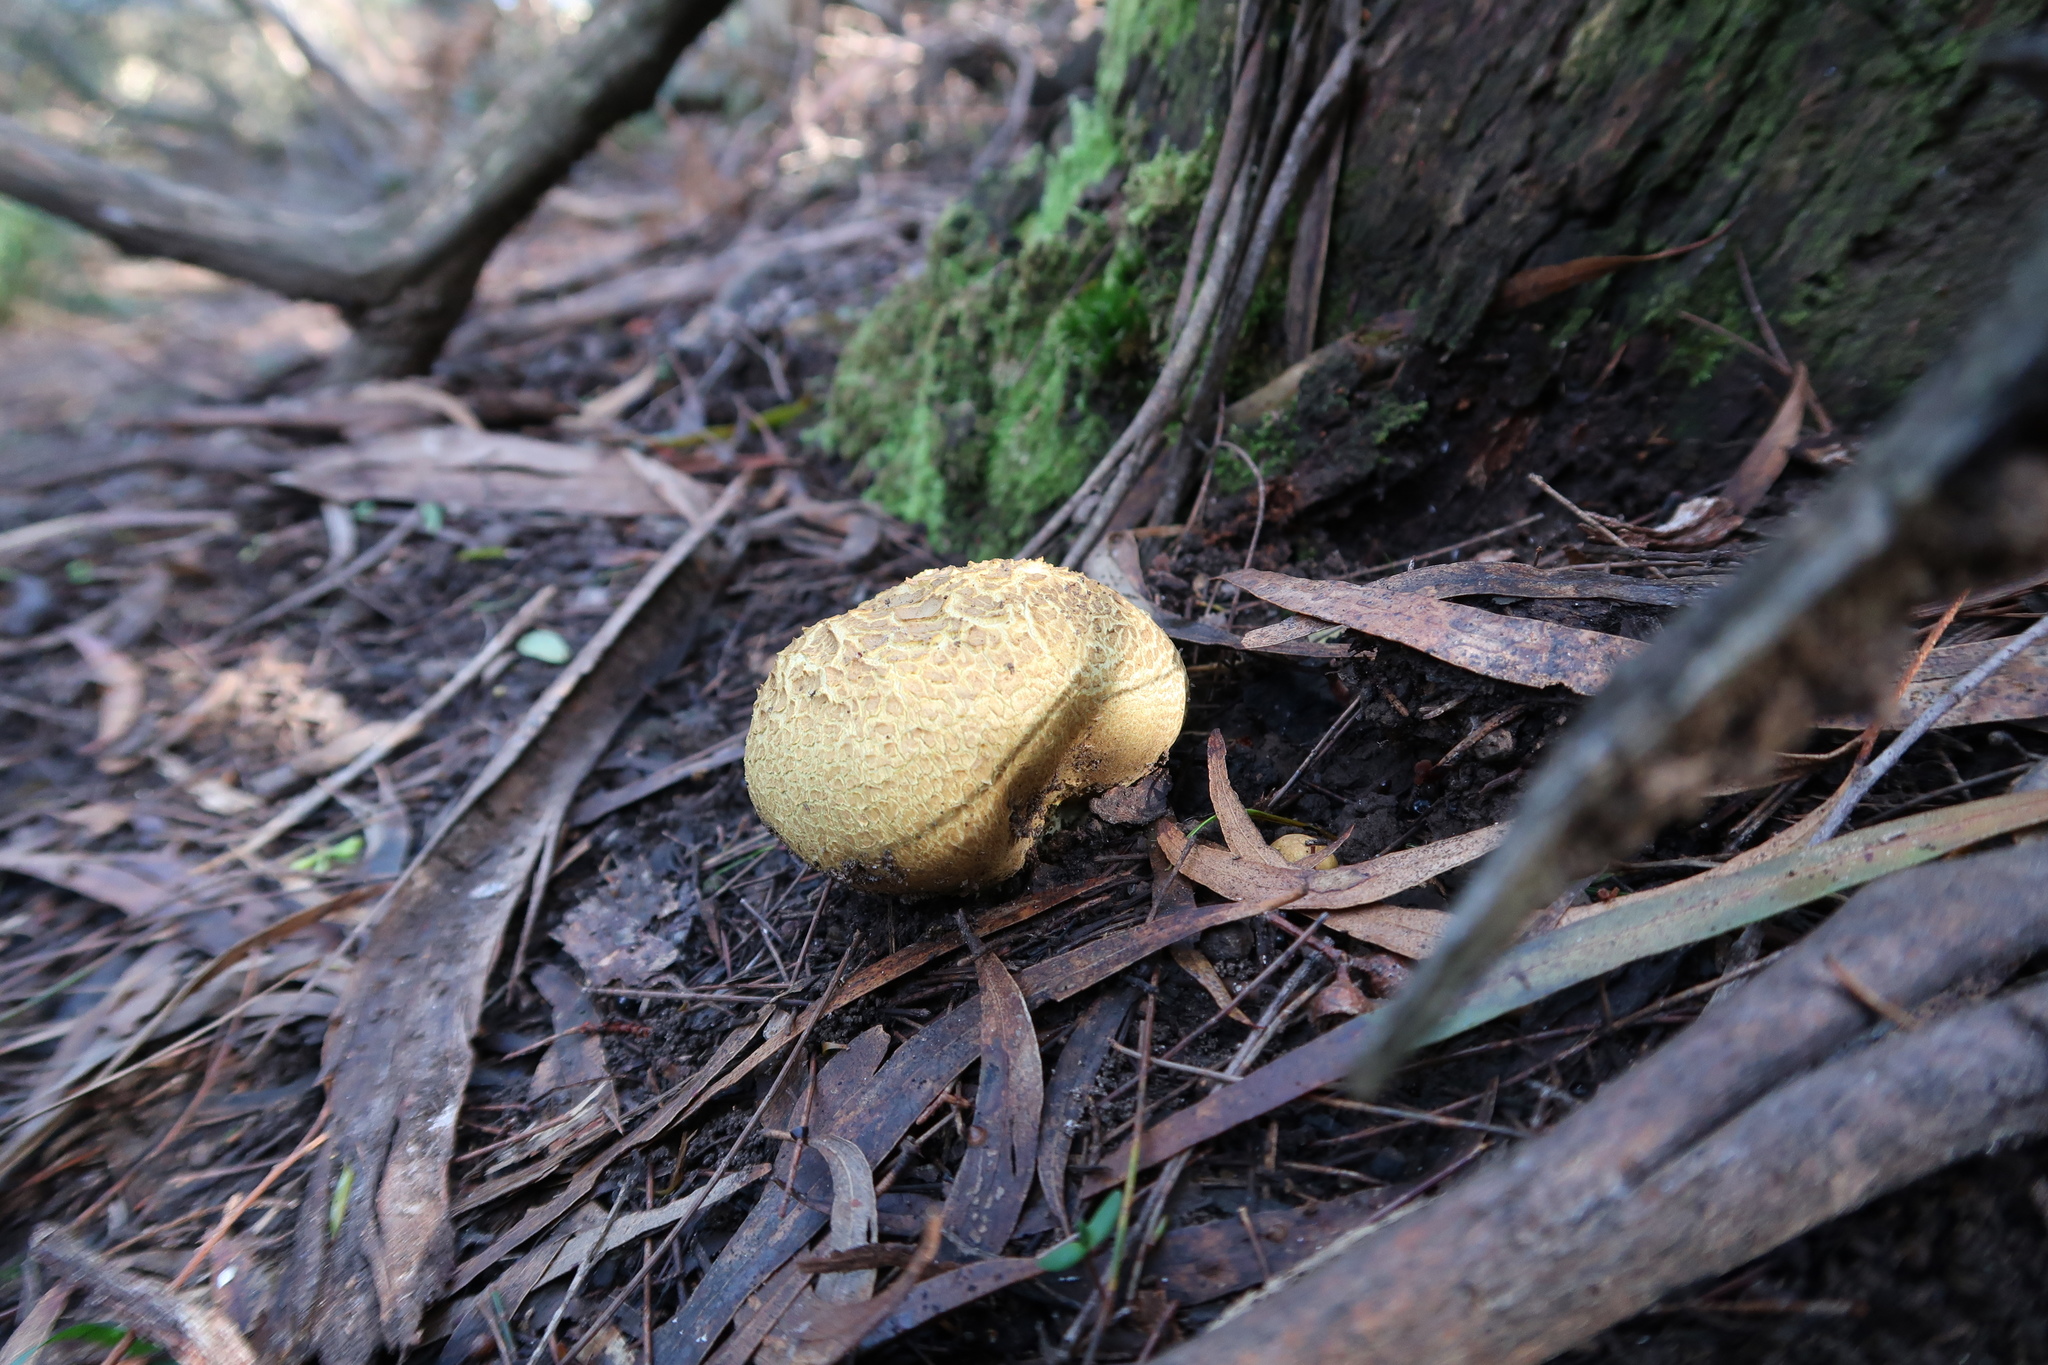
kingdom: Fungi
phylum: Basidiomycota
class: Agaricomycetes
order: Boletales
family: Sclerodermataceae
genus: Scleroderma
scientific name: Scleroderma cepa
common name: Onion earthball
